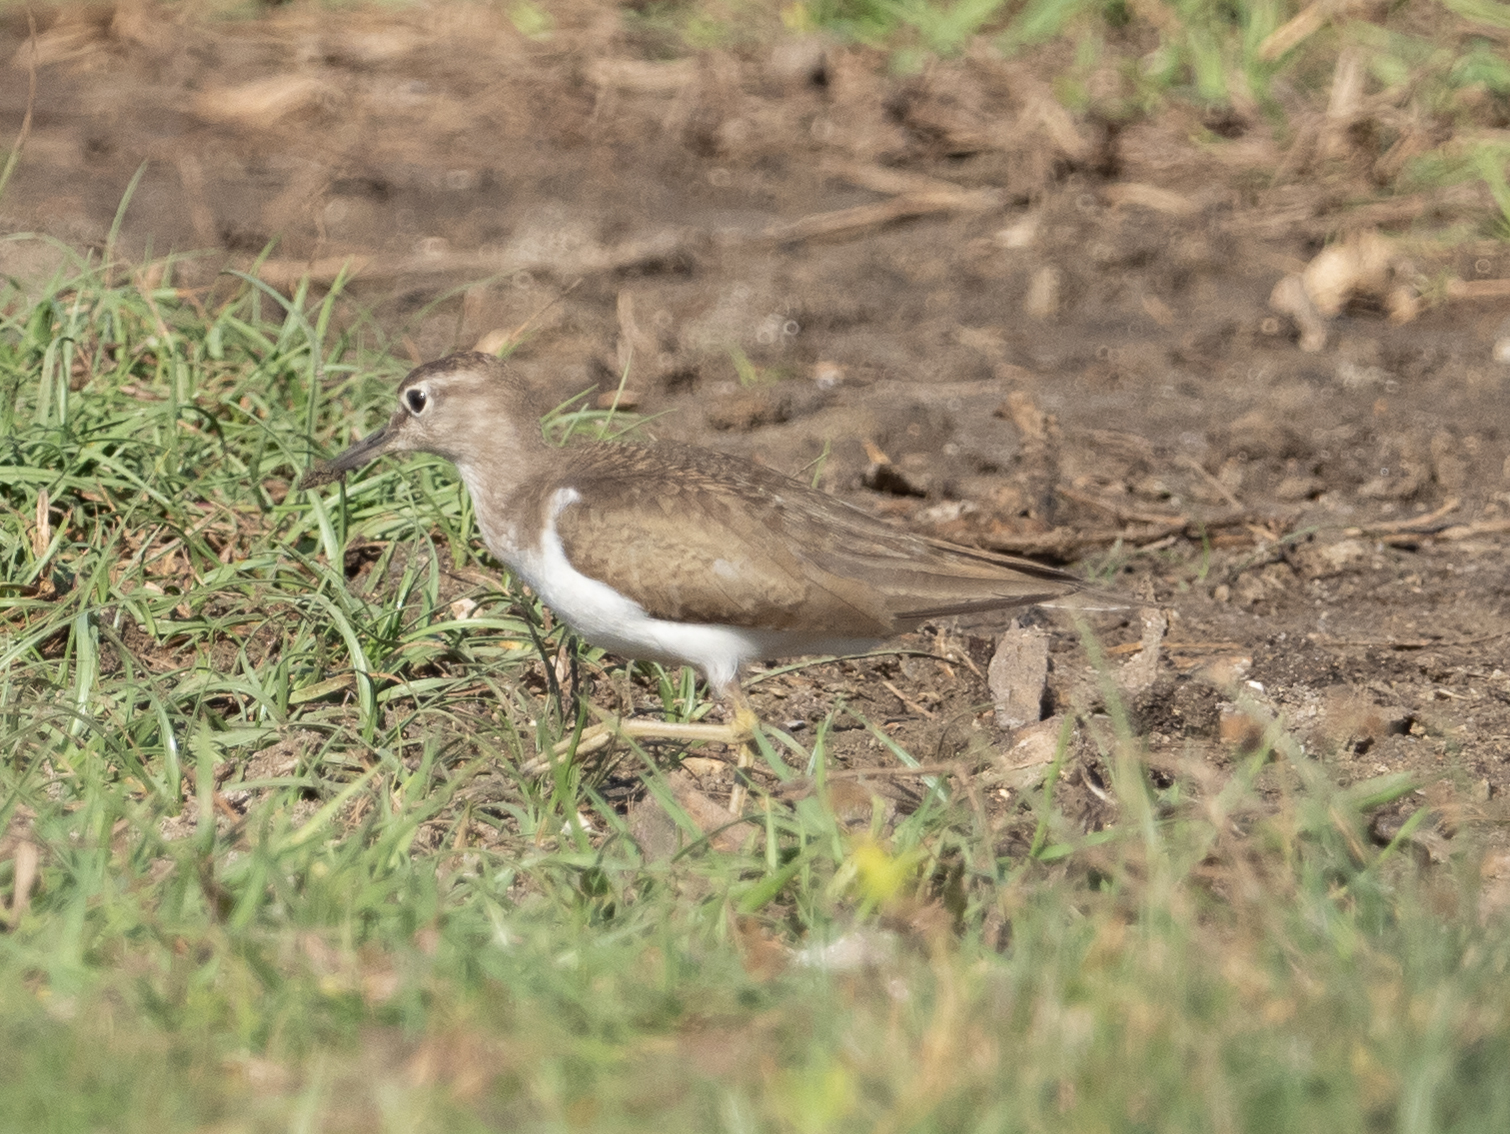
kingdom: Animalia
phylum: Chordata
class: Aves
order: Charadriiformes
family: Scolopacidae
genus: Actitis
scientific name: Actitis hypoleucos
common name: Common sandpiper
